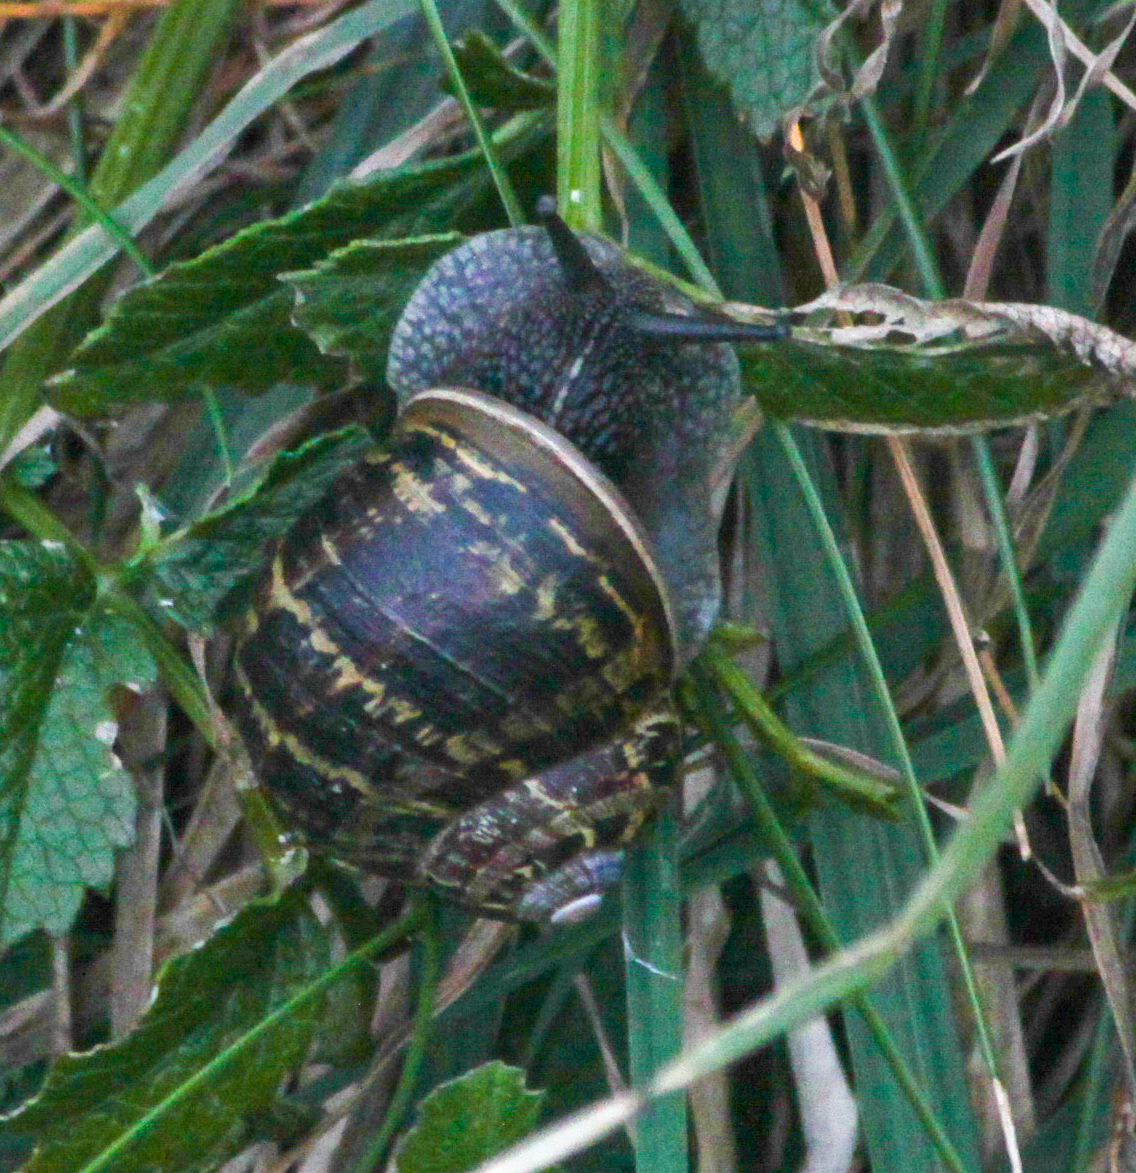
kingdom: Animalia
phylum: Mollusca
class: Gastropoda
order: Stylommatophora
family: Helicidae
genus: Cornu
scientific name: Cornu aspersum
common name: Brown garden snail
